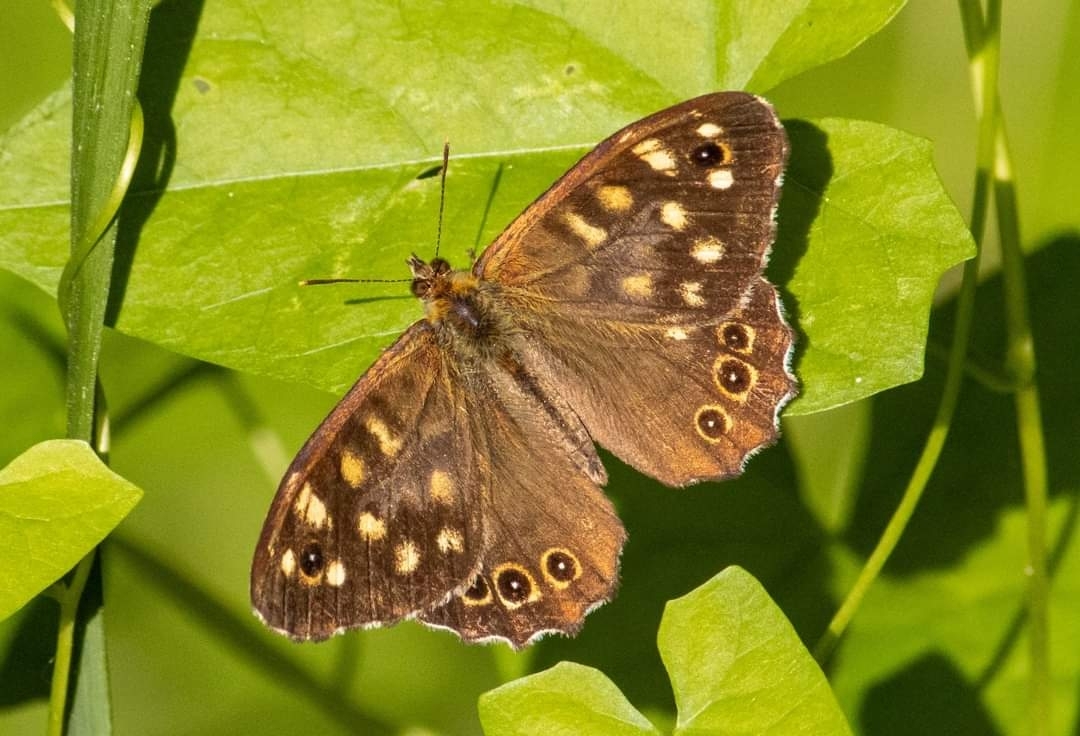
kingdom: Animalia
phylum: Arthropoda
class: Insecta
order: Lepidoptera
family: Nymphalidae
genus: Pararge
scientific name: Pararge aegeria
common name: Speckled wood
